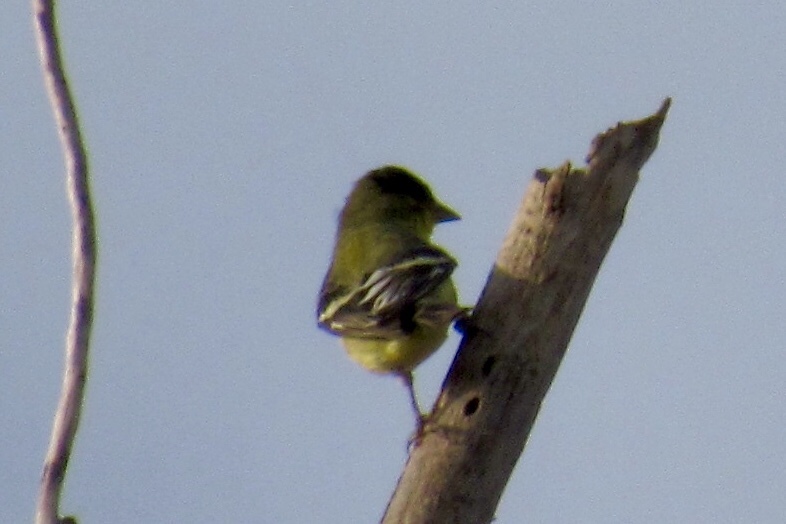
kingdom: Animalia
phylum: Chordata
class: Aves
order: Passeriformes
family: Fringillidae
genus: Spinus
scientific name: Spinus psaltria
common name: Lesser goldfinch
